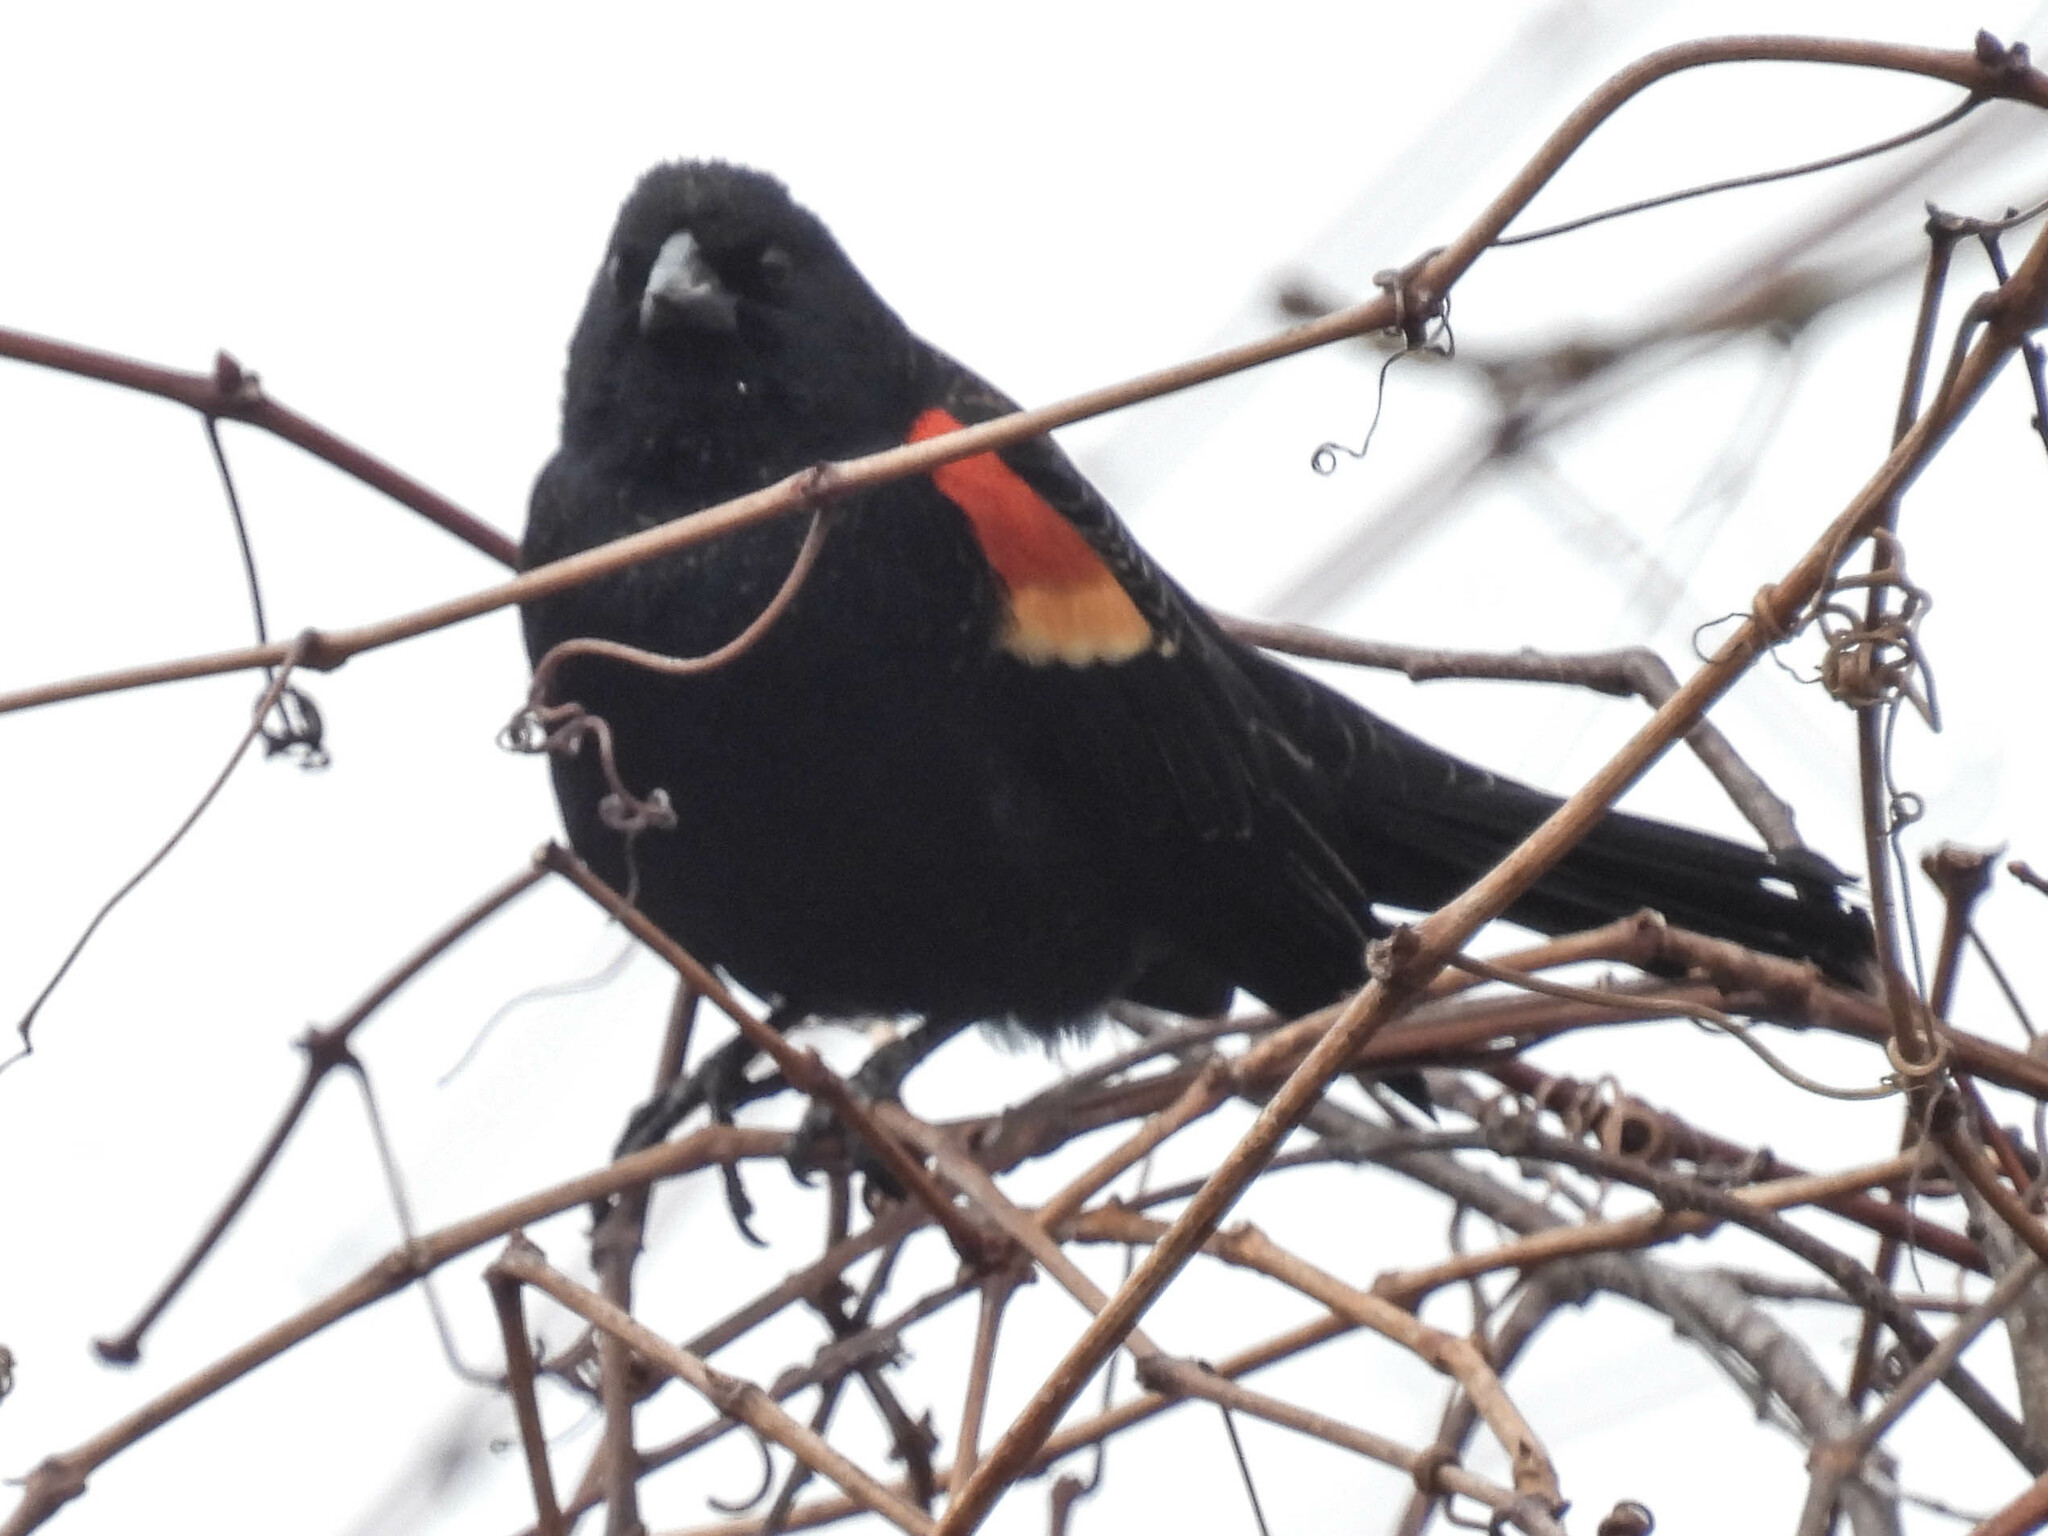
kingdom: Animalia
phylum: Chordata
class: Aves
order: Passeriformes
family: Icteridae
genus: Agelaius
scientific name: Agelaius phoeniceus
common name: Red-winged blackbird
